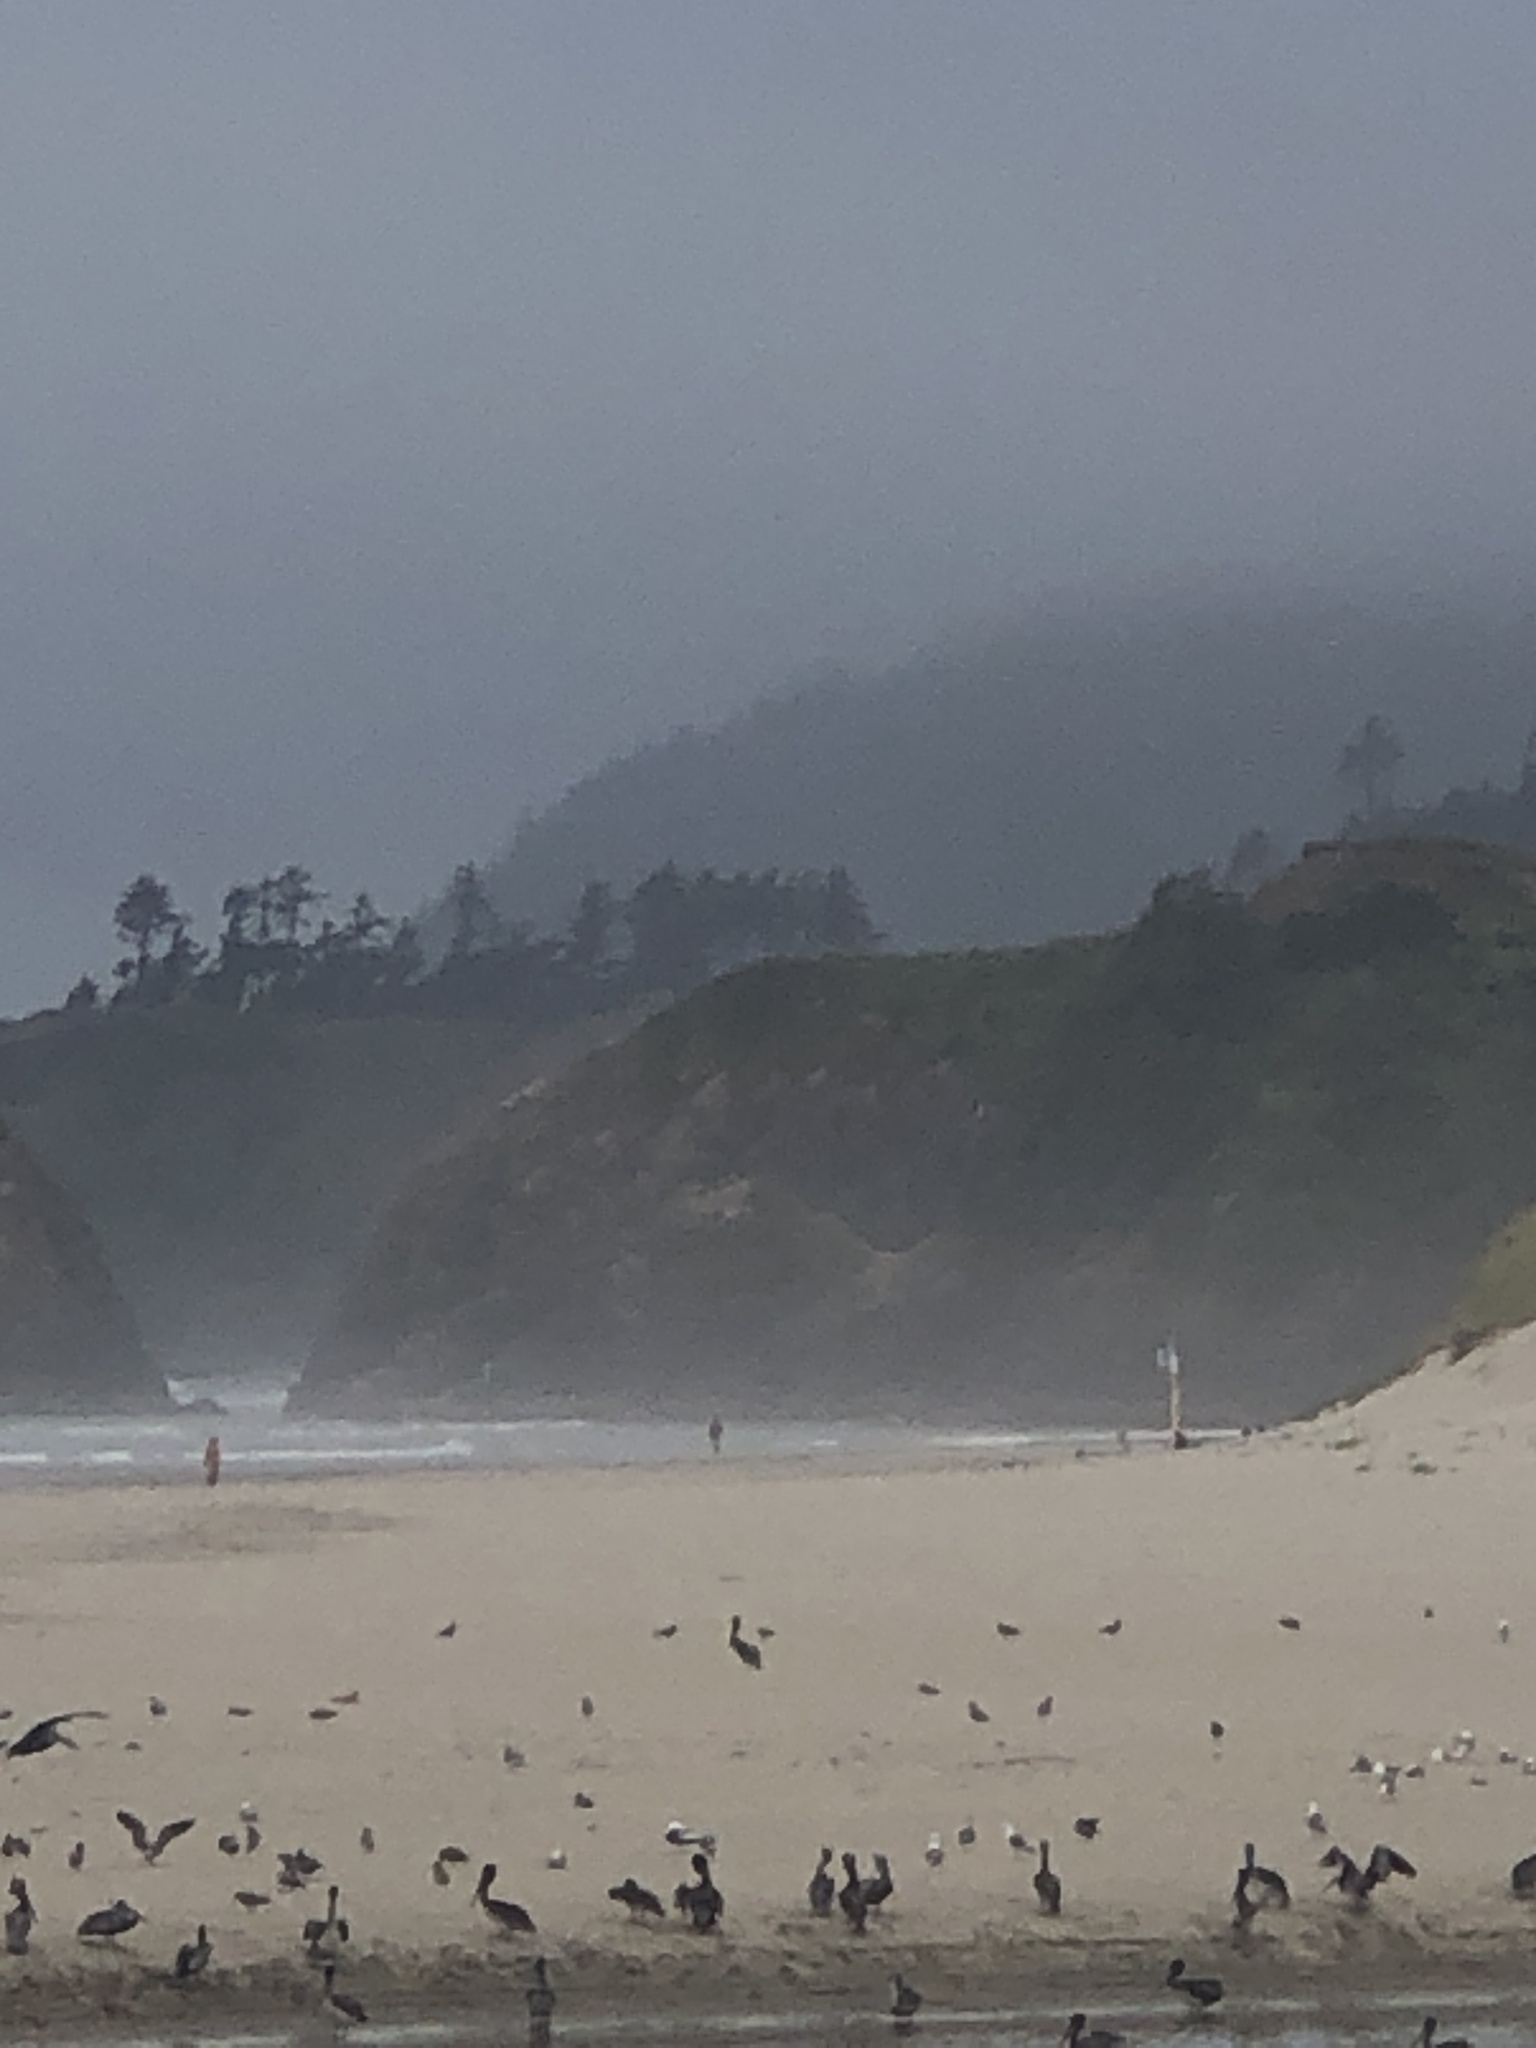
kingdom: Animalia
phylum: Chordata
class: Aves
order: Pelecaniformes
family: Pelecanidae
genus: Pelecanus
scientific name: Pelecanus occidentalis
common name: Brown pelican
